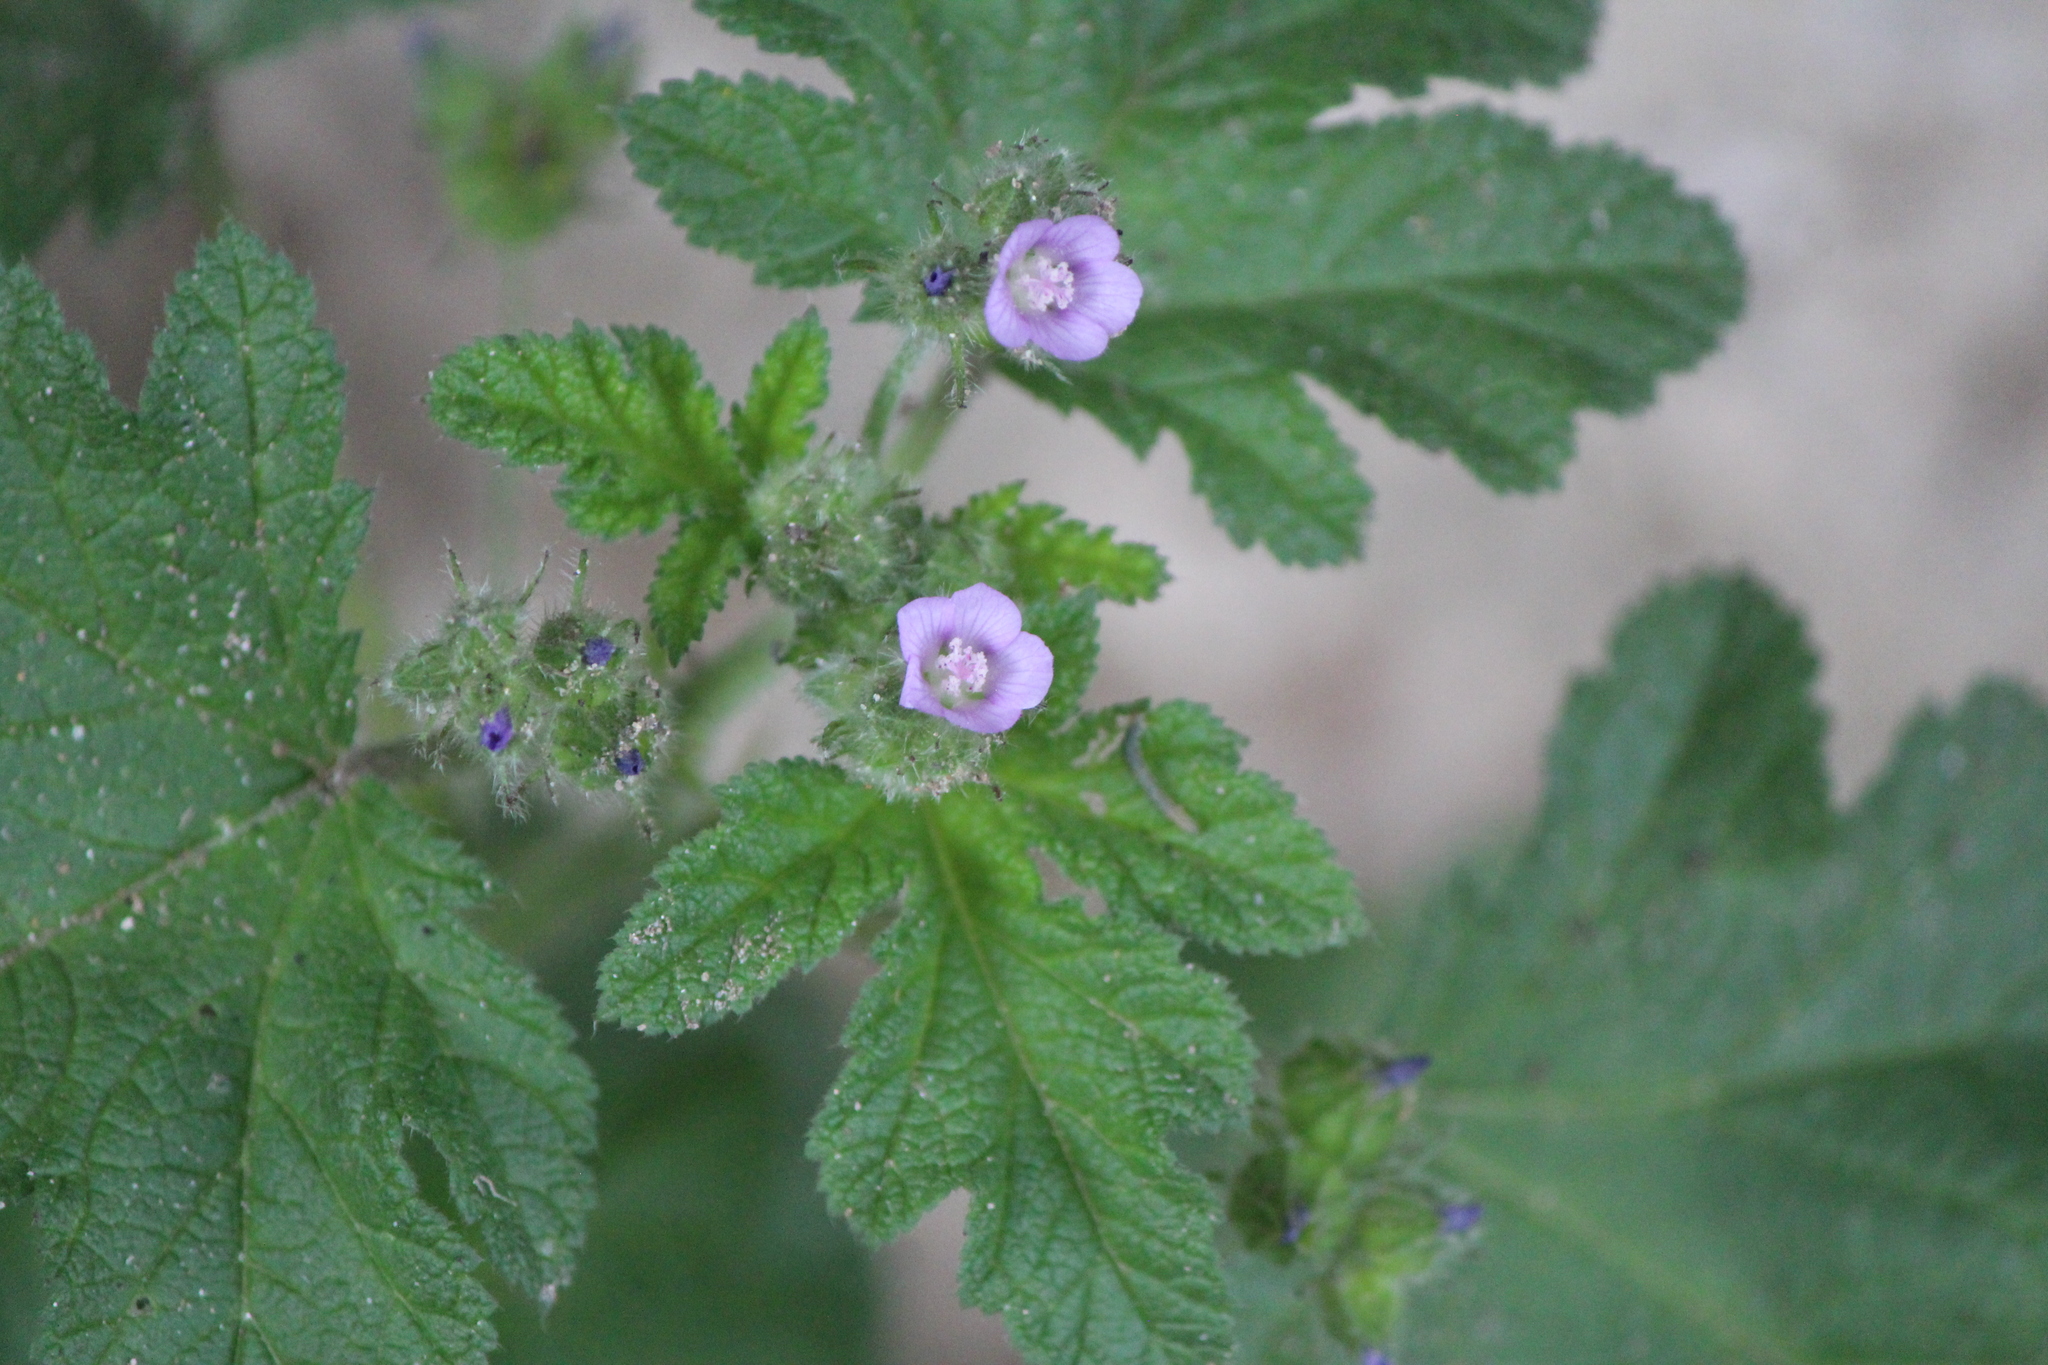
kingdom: Plantae
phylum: Tracheophyta
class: Magnoliopsida
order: Malvales
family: Malvaceae
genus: Fuertesimalva
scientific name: Fuertesimalva limensis
